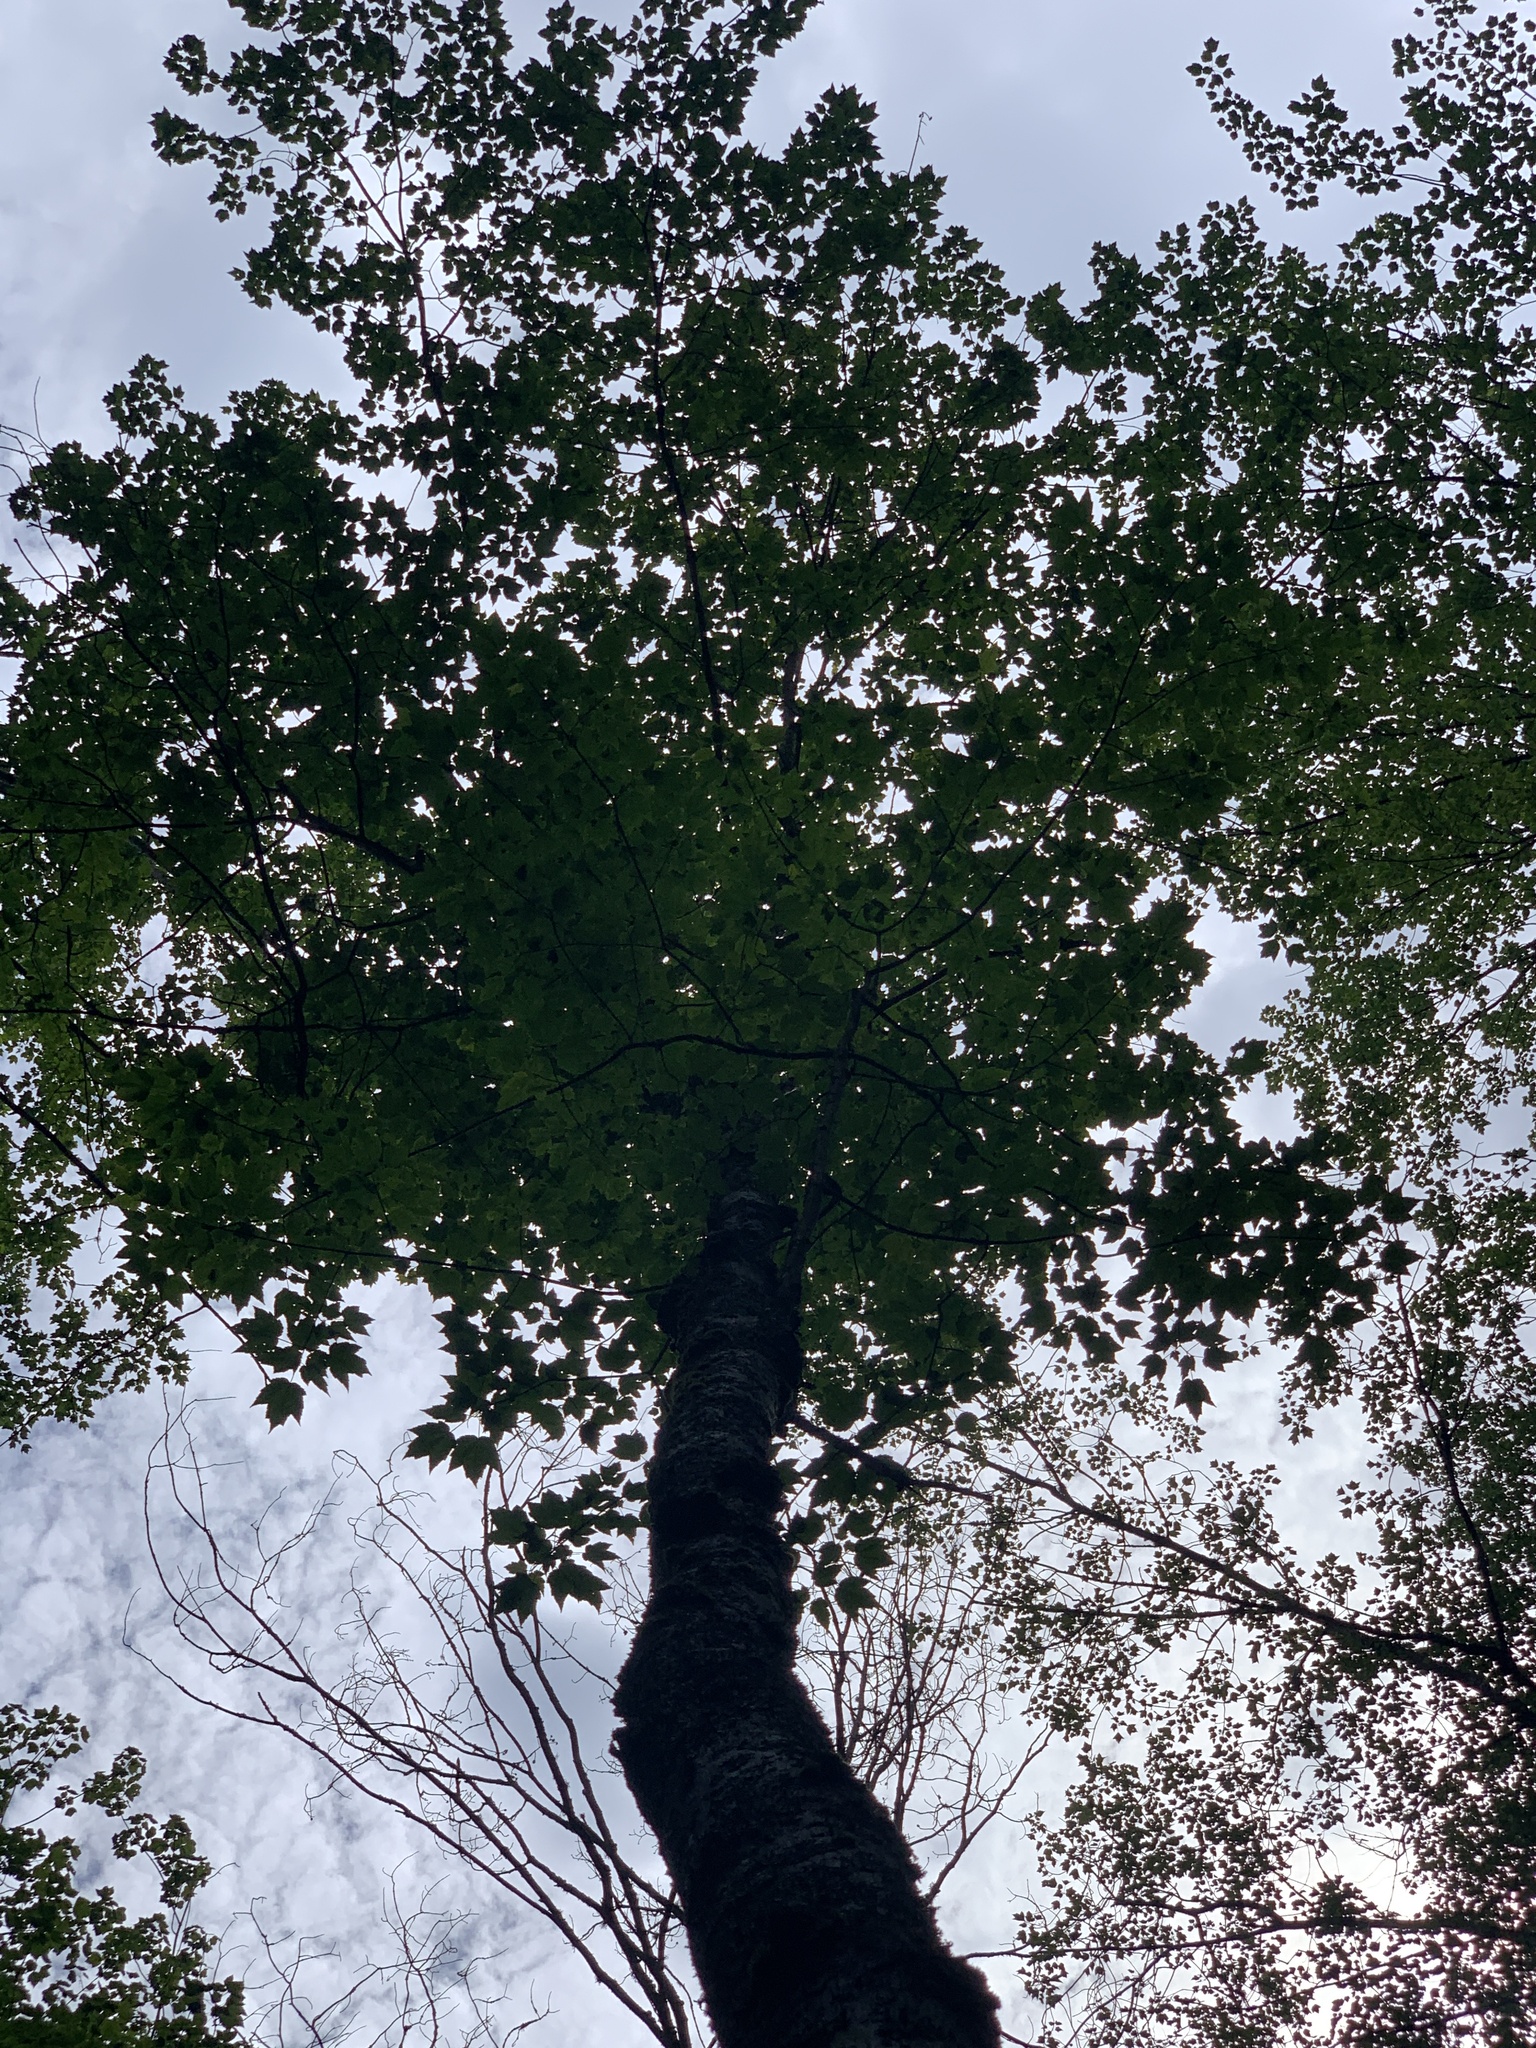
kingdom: Plantae
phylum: Tracheophyta
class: Magnoliopsida
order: Sapindales
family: Sapindaceae
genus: Acer
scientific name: Acer rubrum
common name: Red maple
